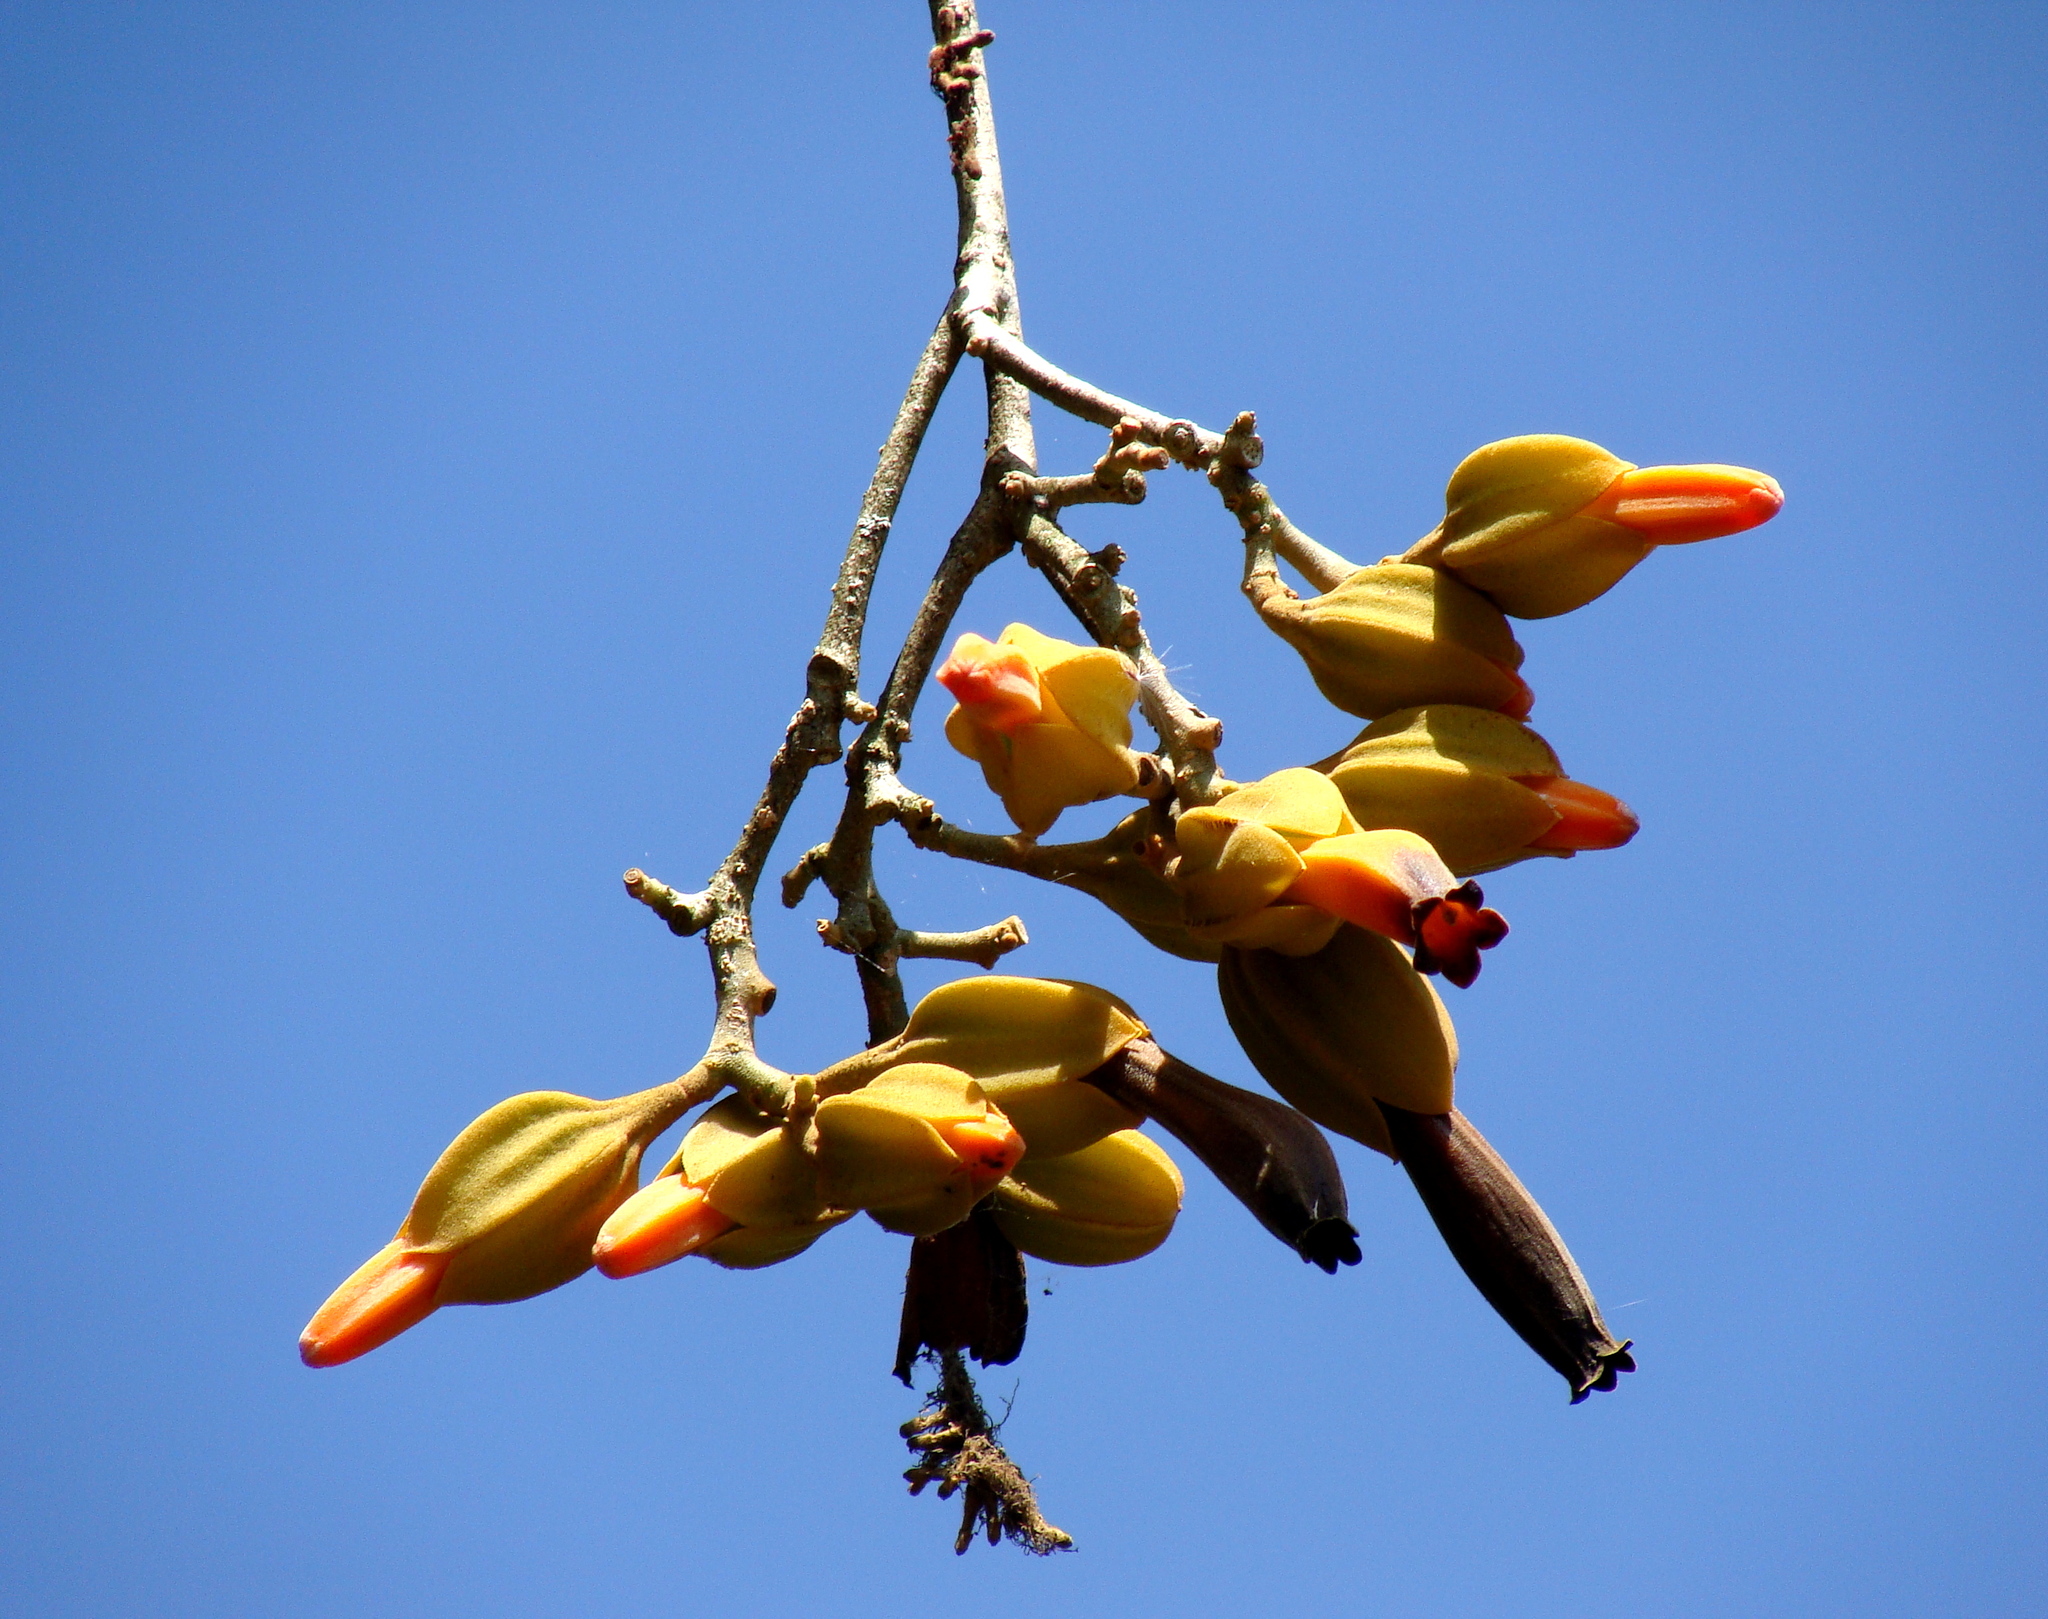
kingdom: Plantae
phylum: Tracheophyta
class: Magnoliopsida
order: Solanales
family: Solanaceae
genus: Juanulloa
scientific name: Juanulloa mexicana
